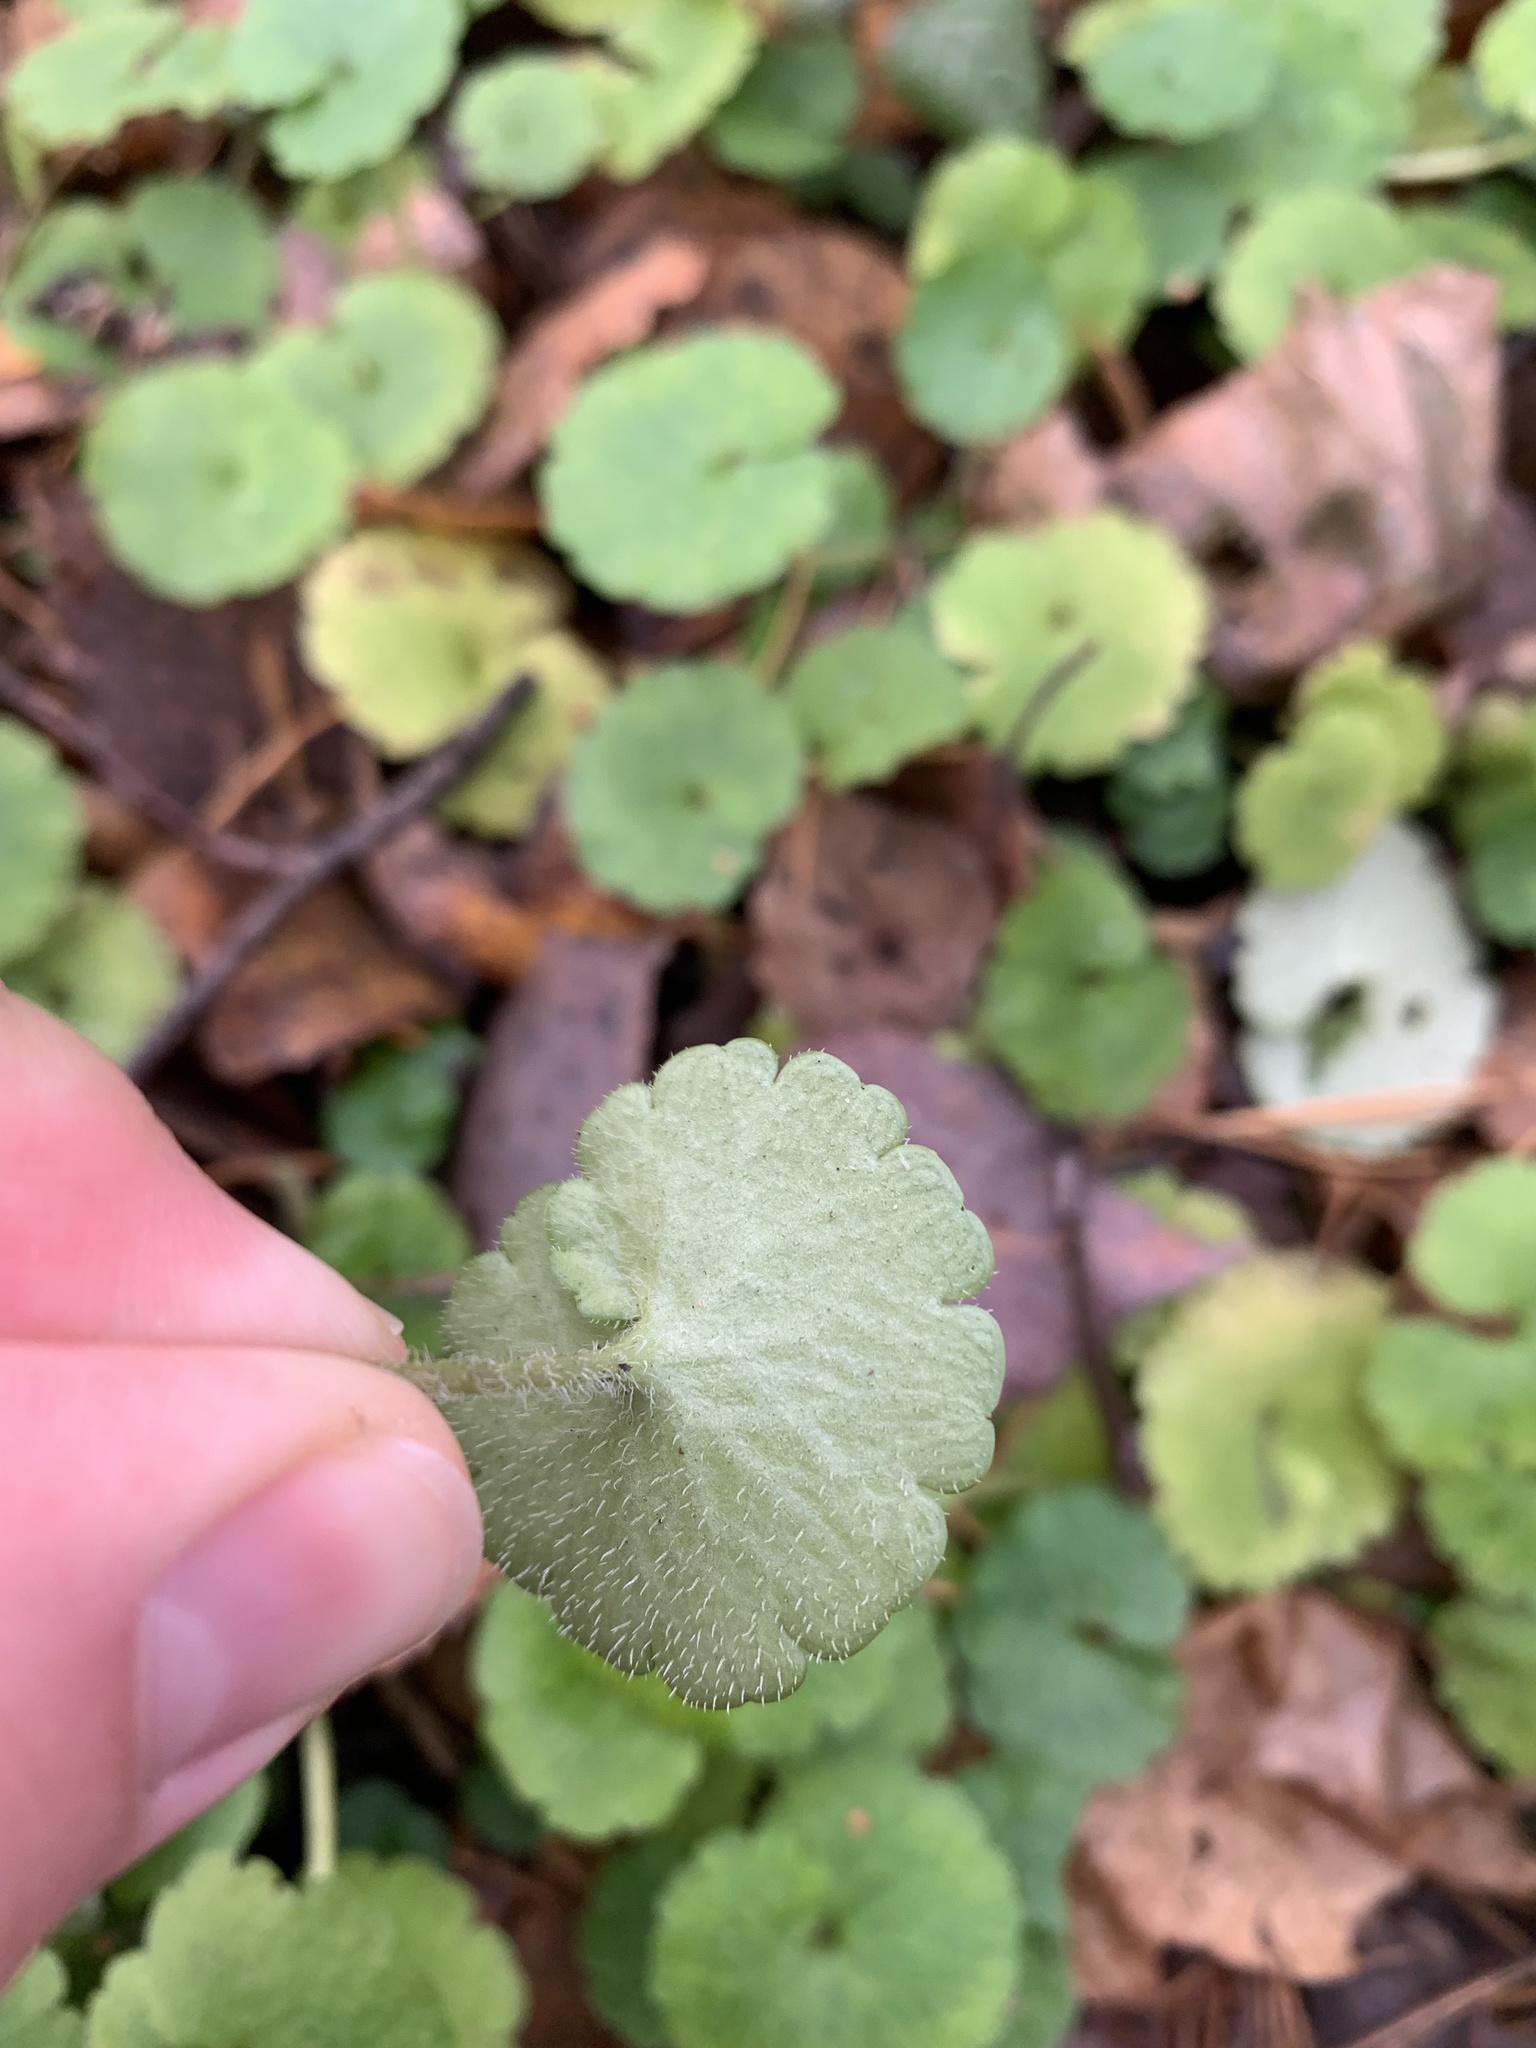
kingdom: Plantae
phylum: Tracheophyta
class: Magnoliopsida
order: Saxifragales
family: Saxifragaceae
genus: Chrysosplenium
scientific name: Chrysosplenium alternifolium
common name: Alternate-leaved golden-saxifrage
